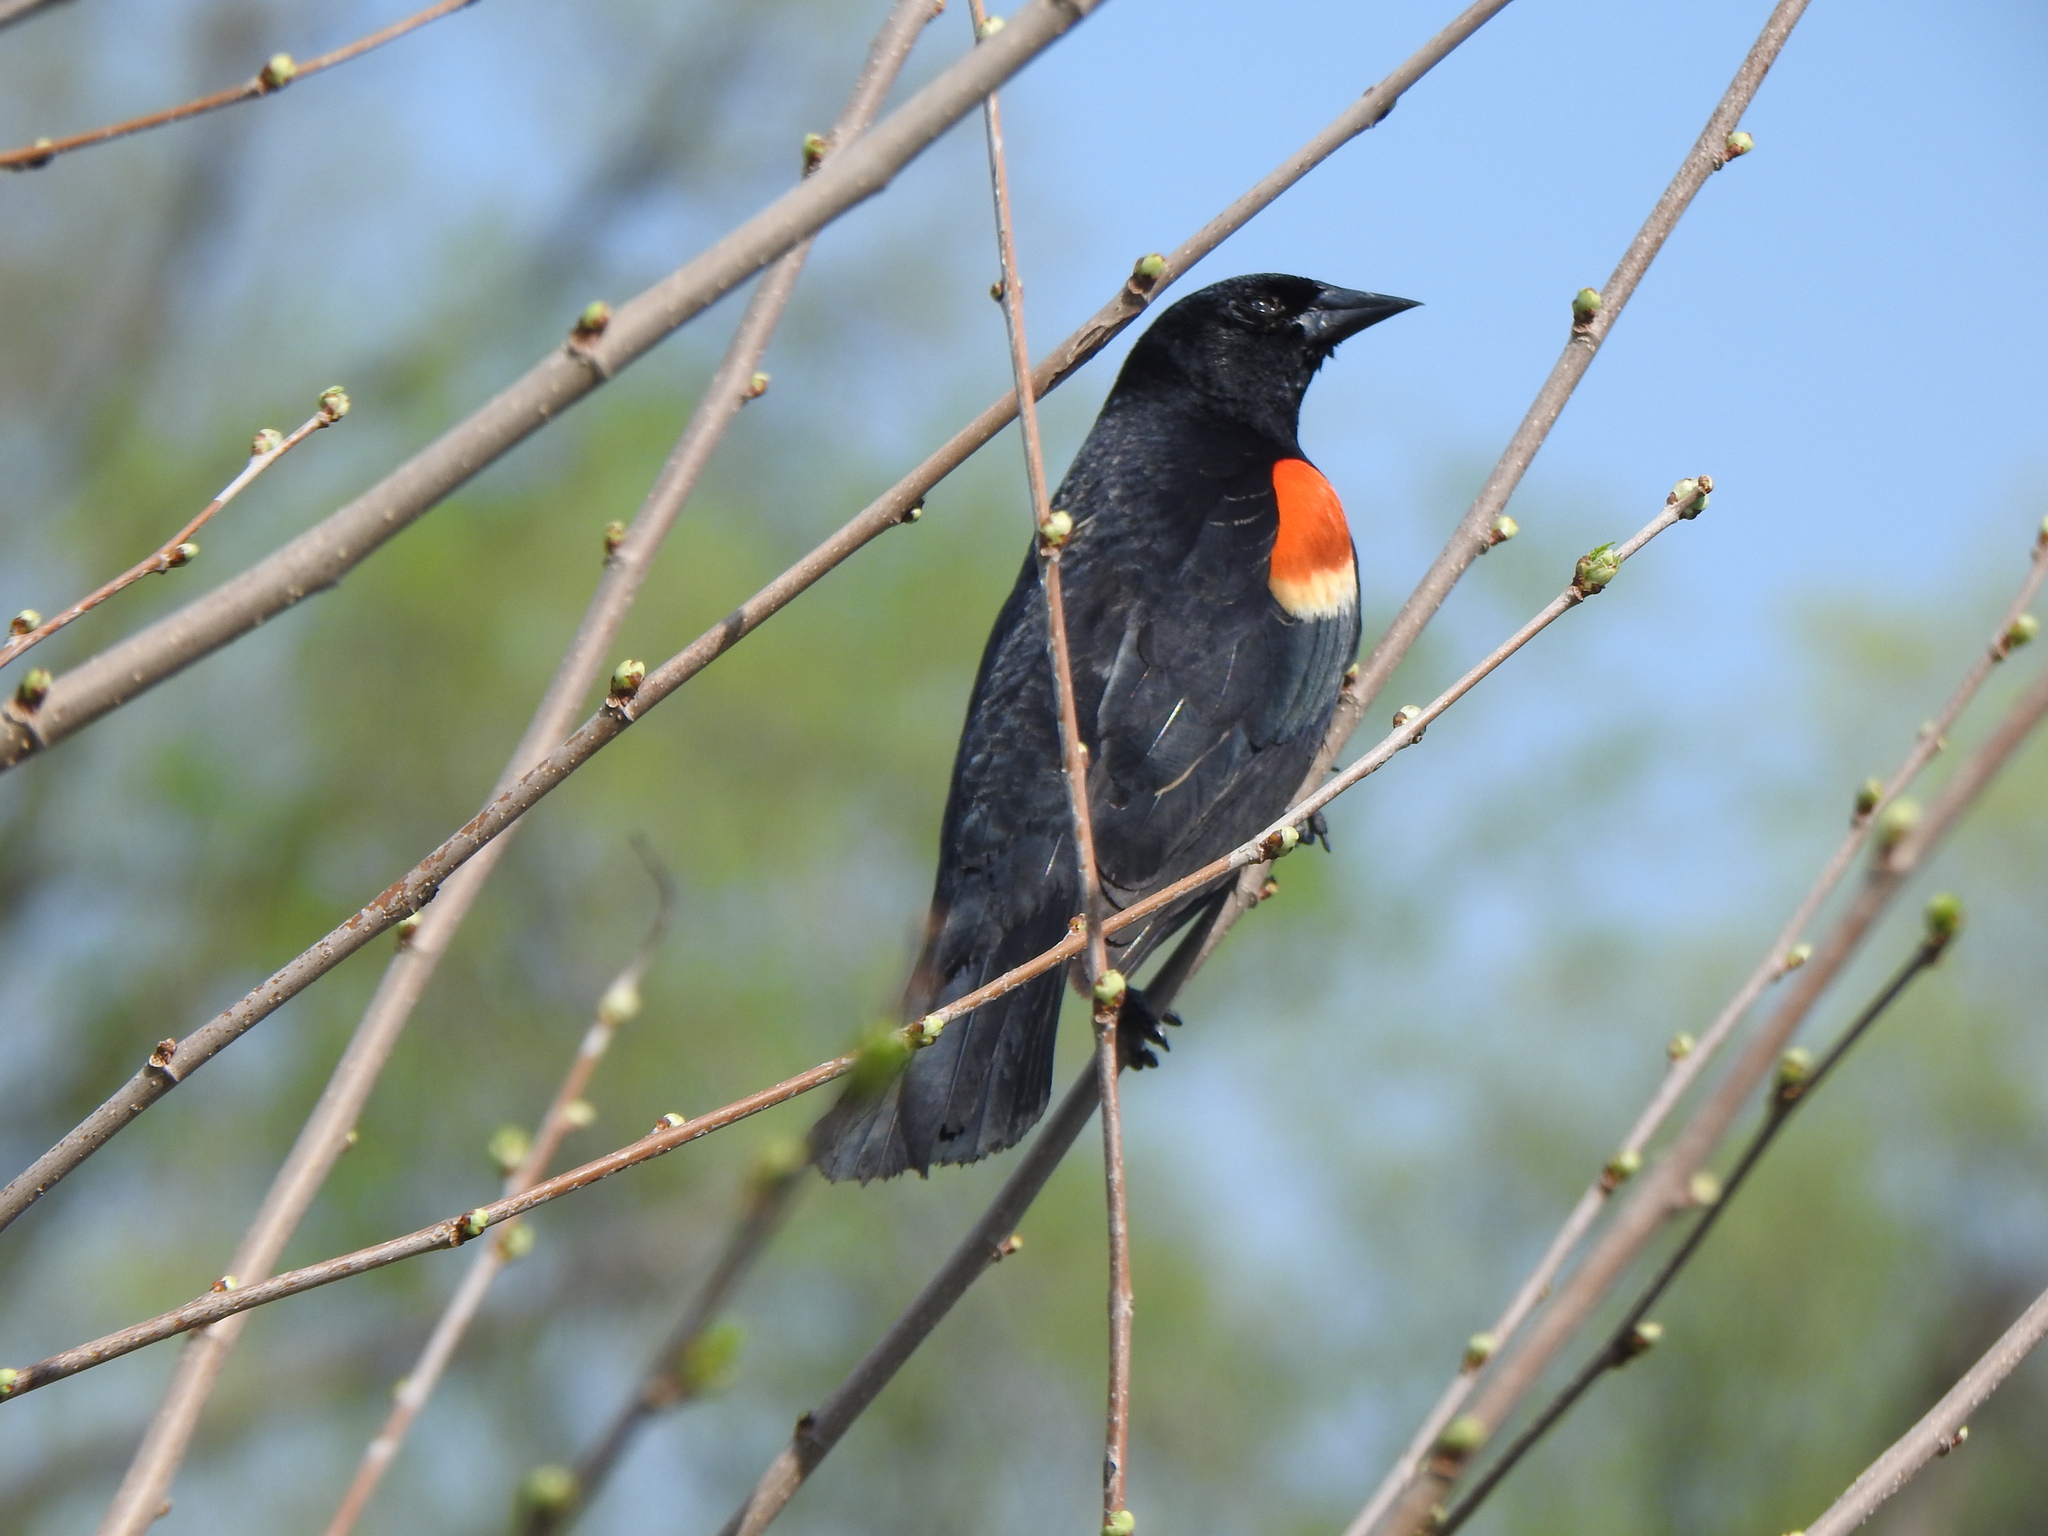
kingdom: Animalia
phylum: Chordata
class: Aves
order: Passeriformes
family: Icteridae
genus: Agelaius
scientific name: Agelaius phoeniceus
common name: Red-winged blackbird
